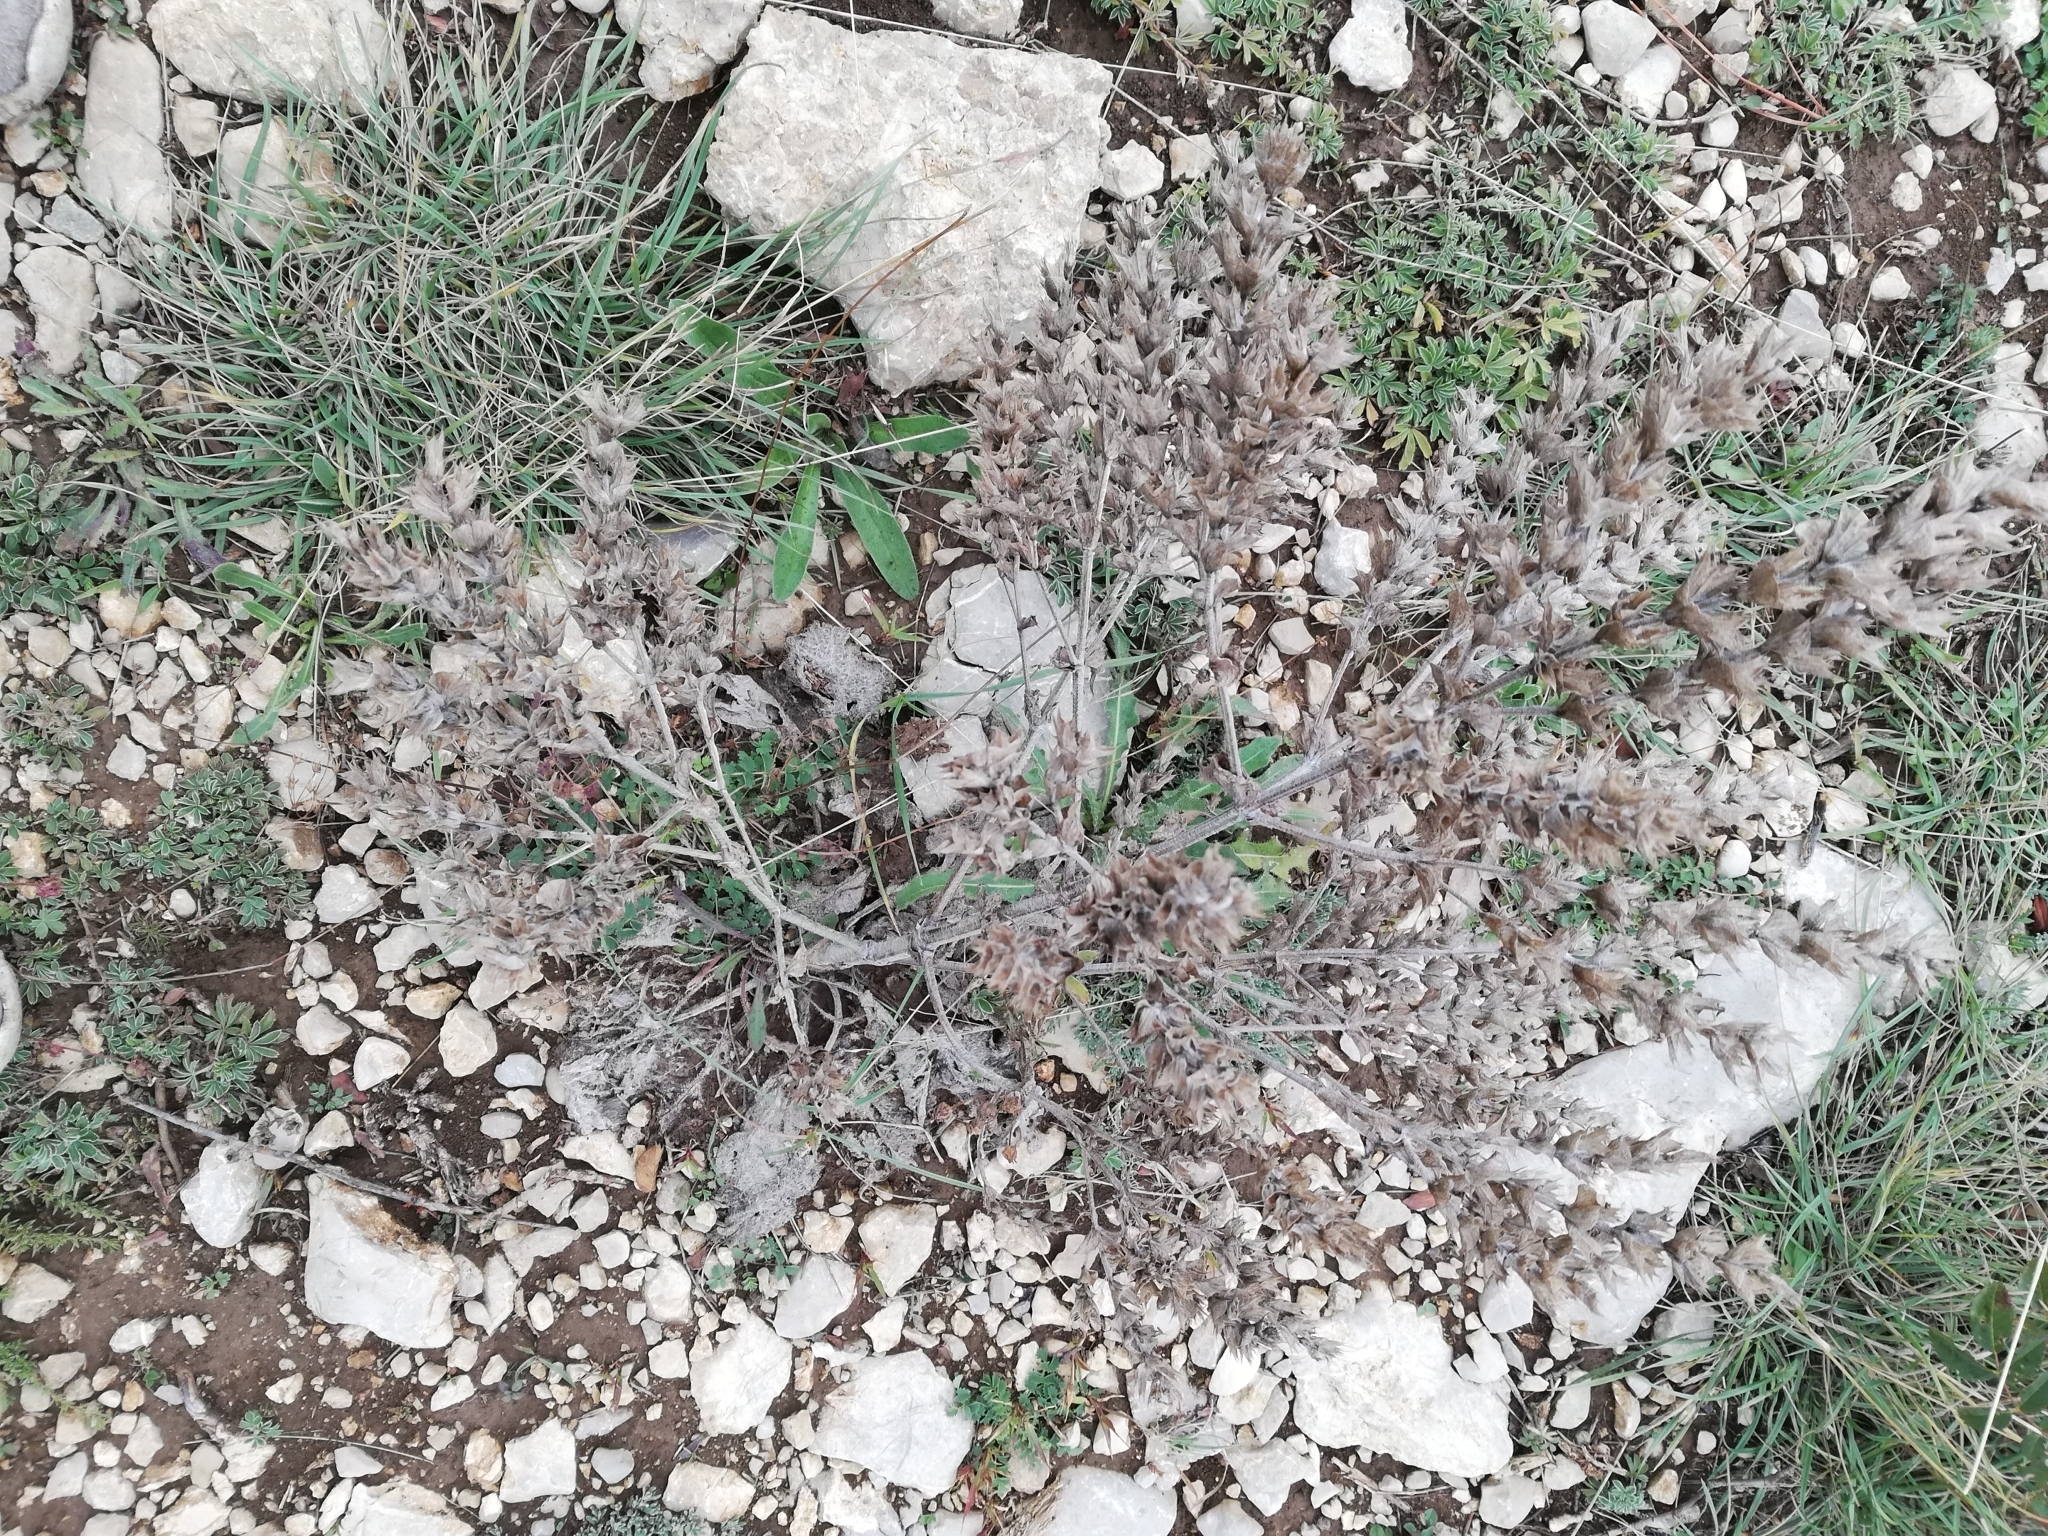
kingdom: Plantae
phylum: Tracheophyta
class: Magnoliopsida
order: Lamiales
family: Lamiaceae
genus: Salvia
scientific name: Salvia aethiopis
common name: Mediterranean sage
